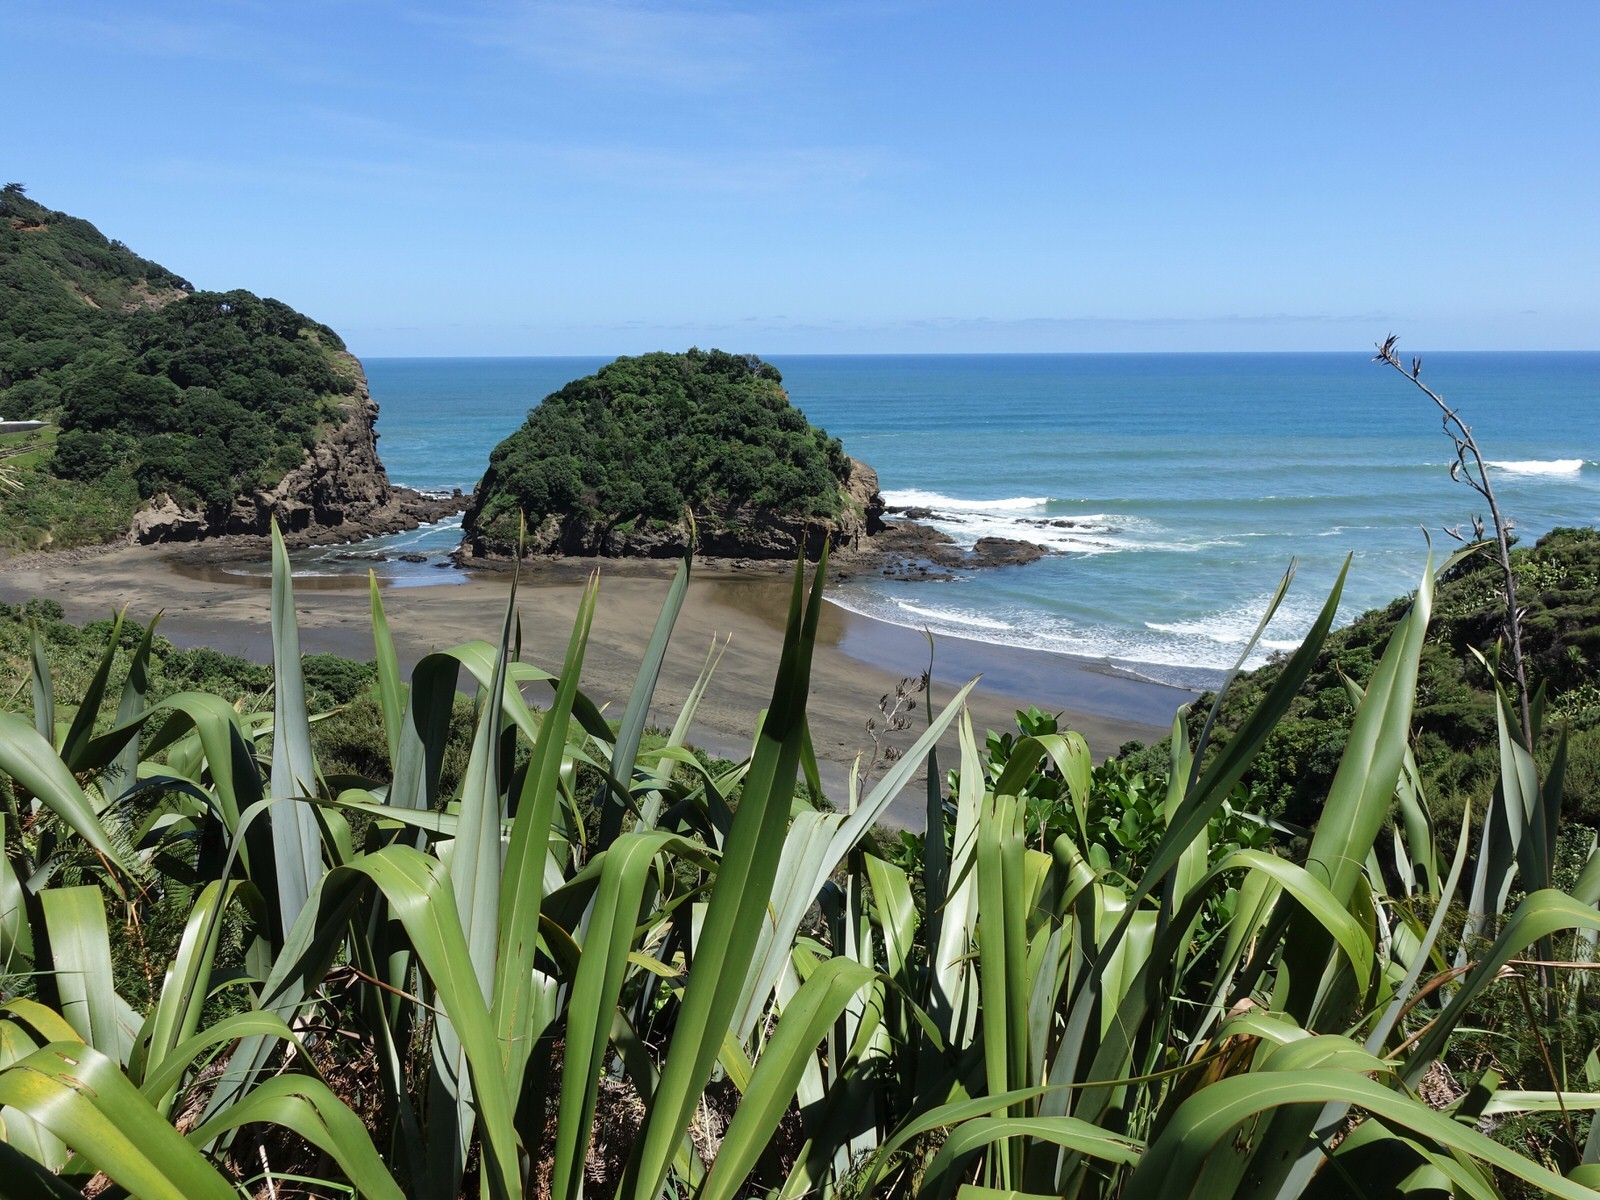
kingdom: Animalia
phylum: Arthropoda
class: Insecta
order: Phasmida
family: Phasmatidae
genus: Clitarchus
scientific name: Clitarchus hookeri
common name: Smooth stick insect
